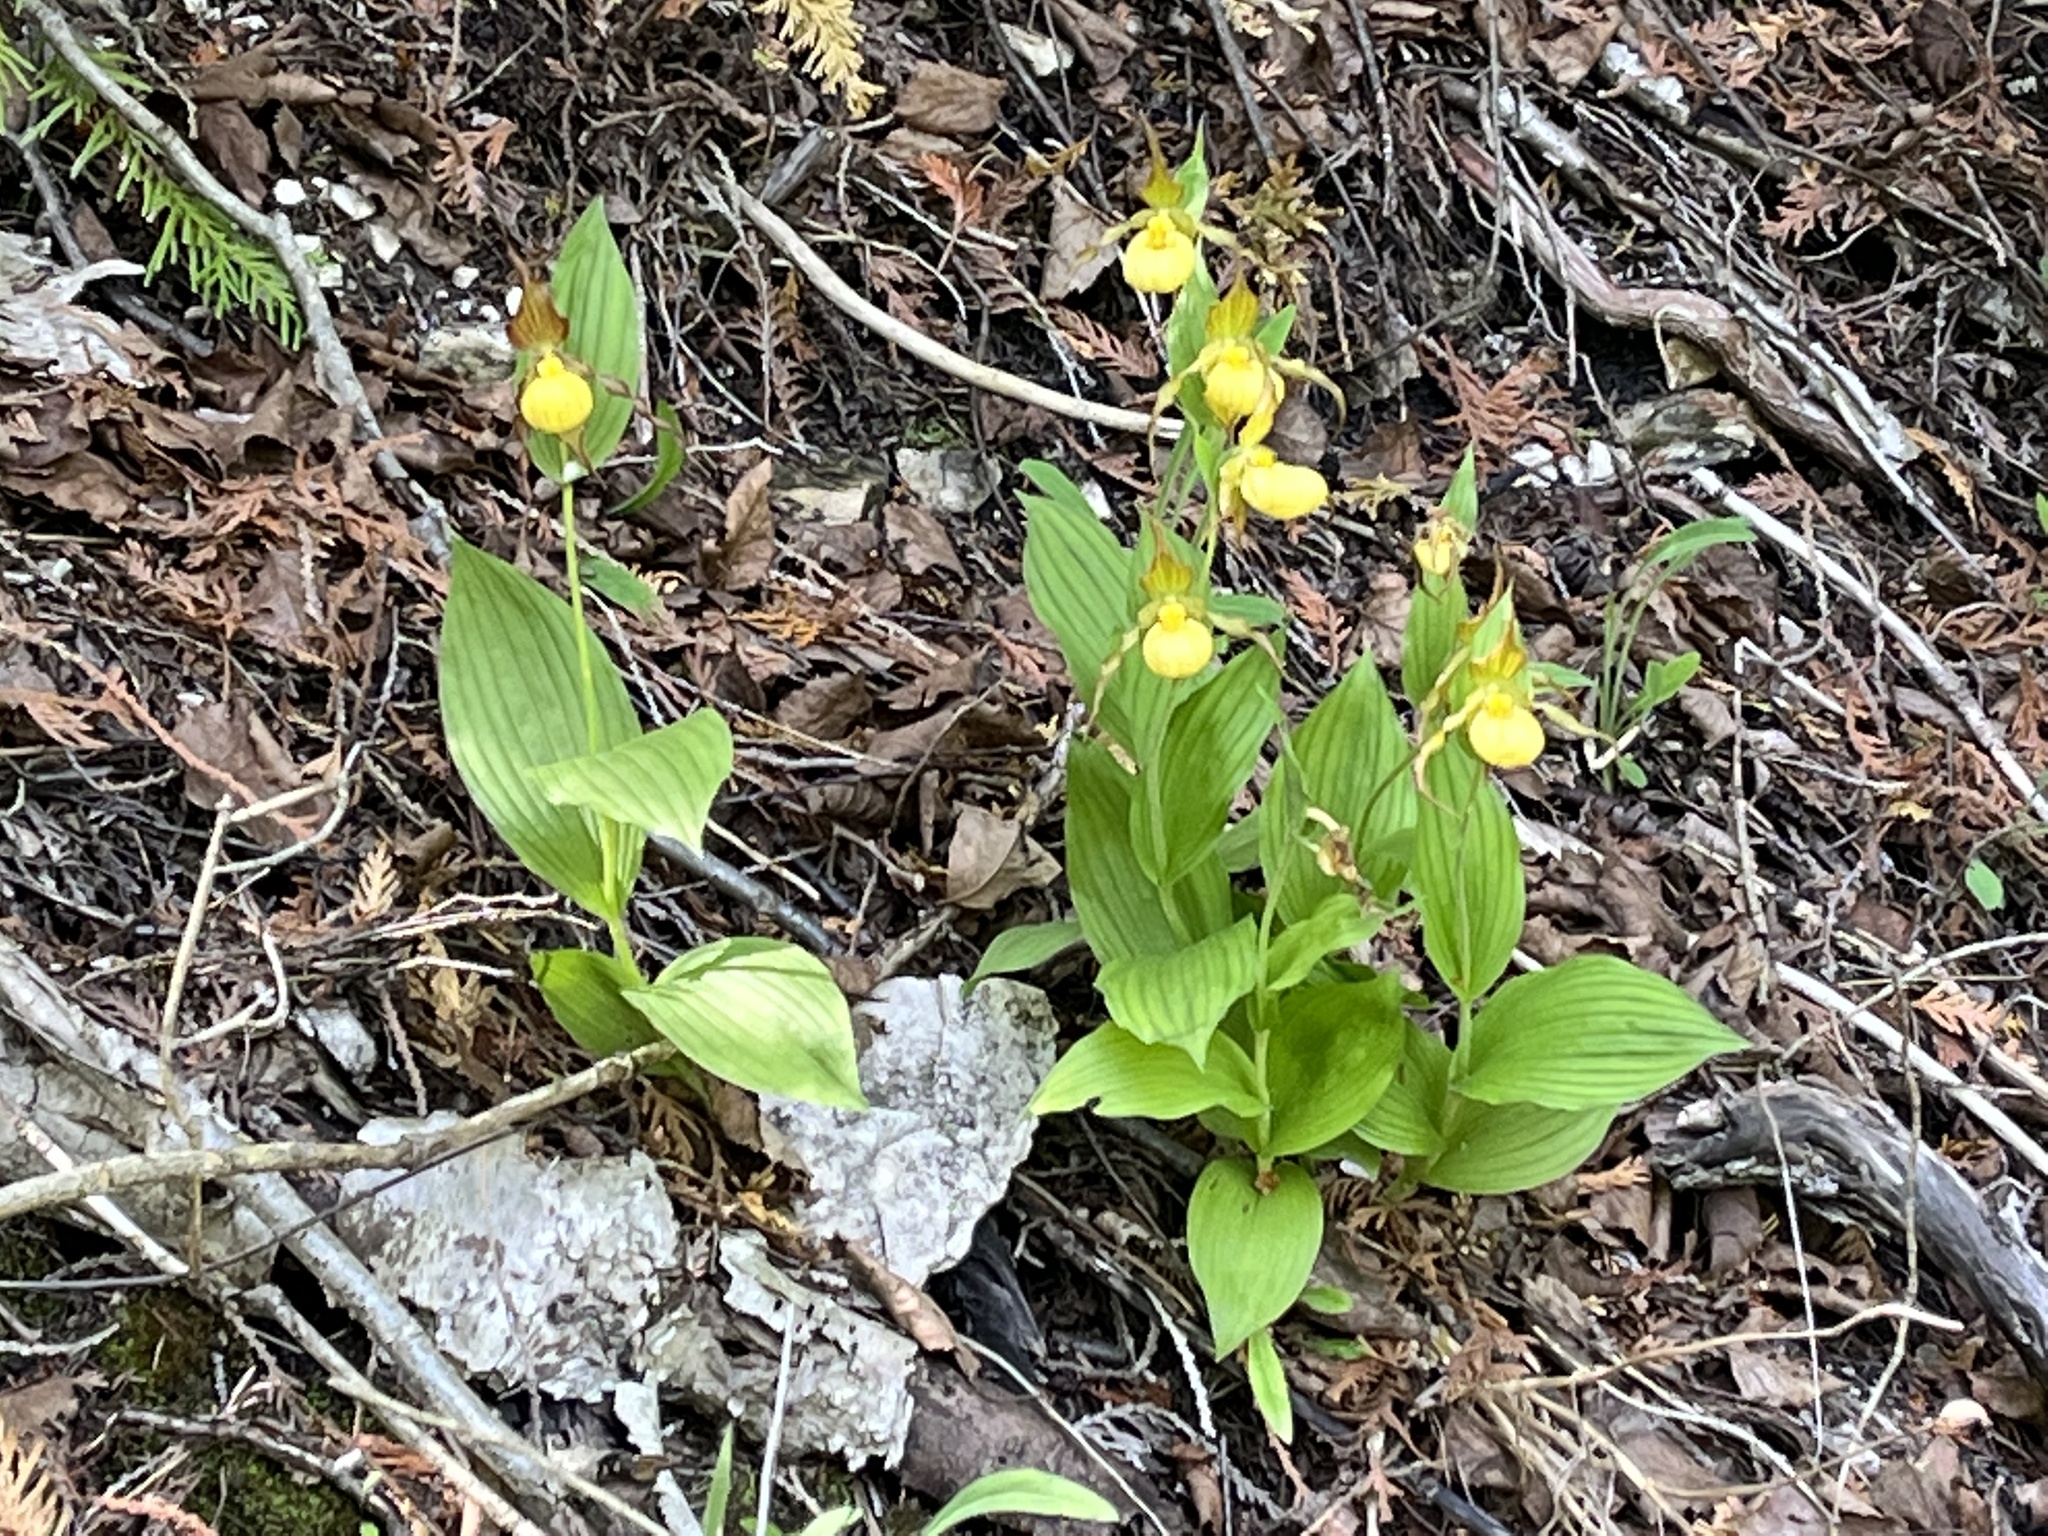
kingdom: Plantae
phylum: Tracheophyta
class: Liliopsida
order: Asparagales
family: Orchidaceae
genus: Cypripedium
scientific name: Cypripedium parviflorum
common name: American yellow lady's-slipper
